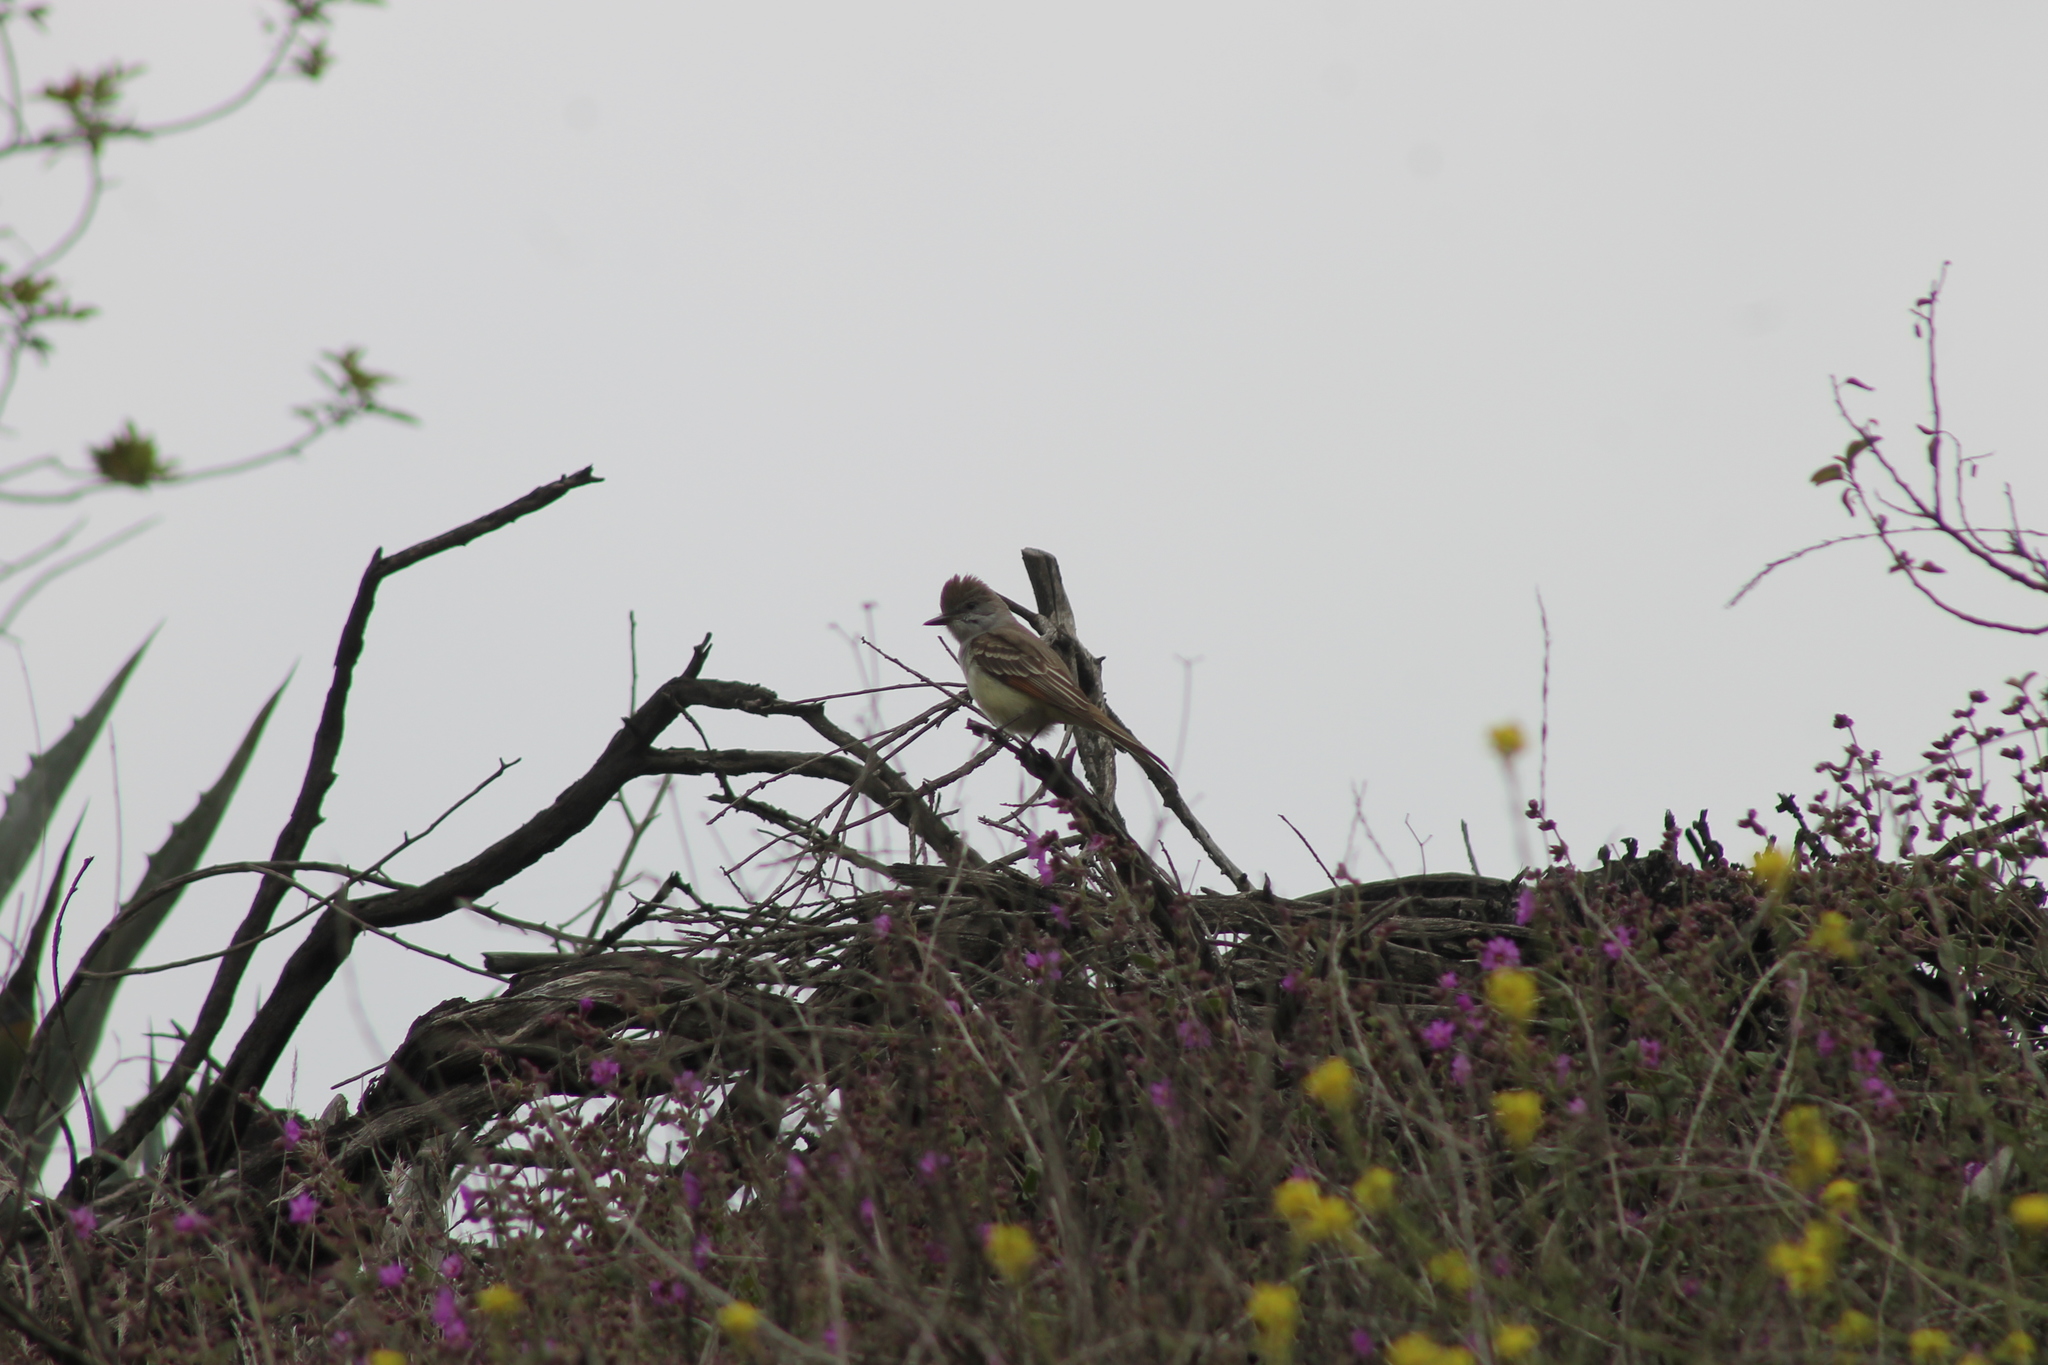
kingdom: Animalia
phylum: Chordata
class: Aves
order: Passeriformes
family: Tyrannidae
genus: Myiarchus
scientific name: Myiarchus cinerascens
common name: Ash-throated flycatcher
